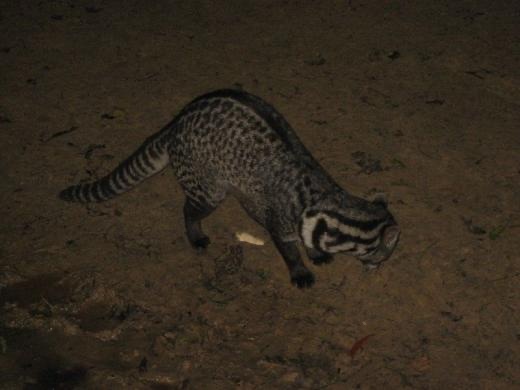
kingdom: Animalia
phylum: Chordata
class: Mammalia
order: Carnivora
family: Viverridae
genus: Viverra
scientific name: Viverra tangalunga
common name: Malayan civet
